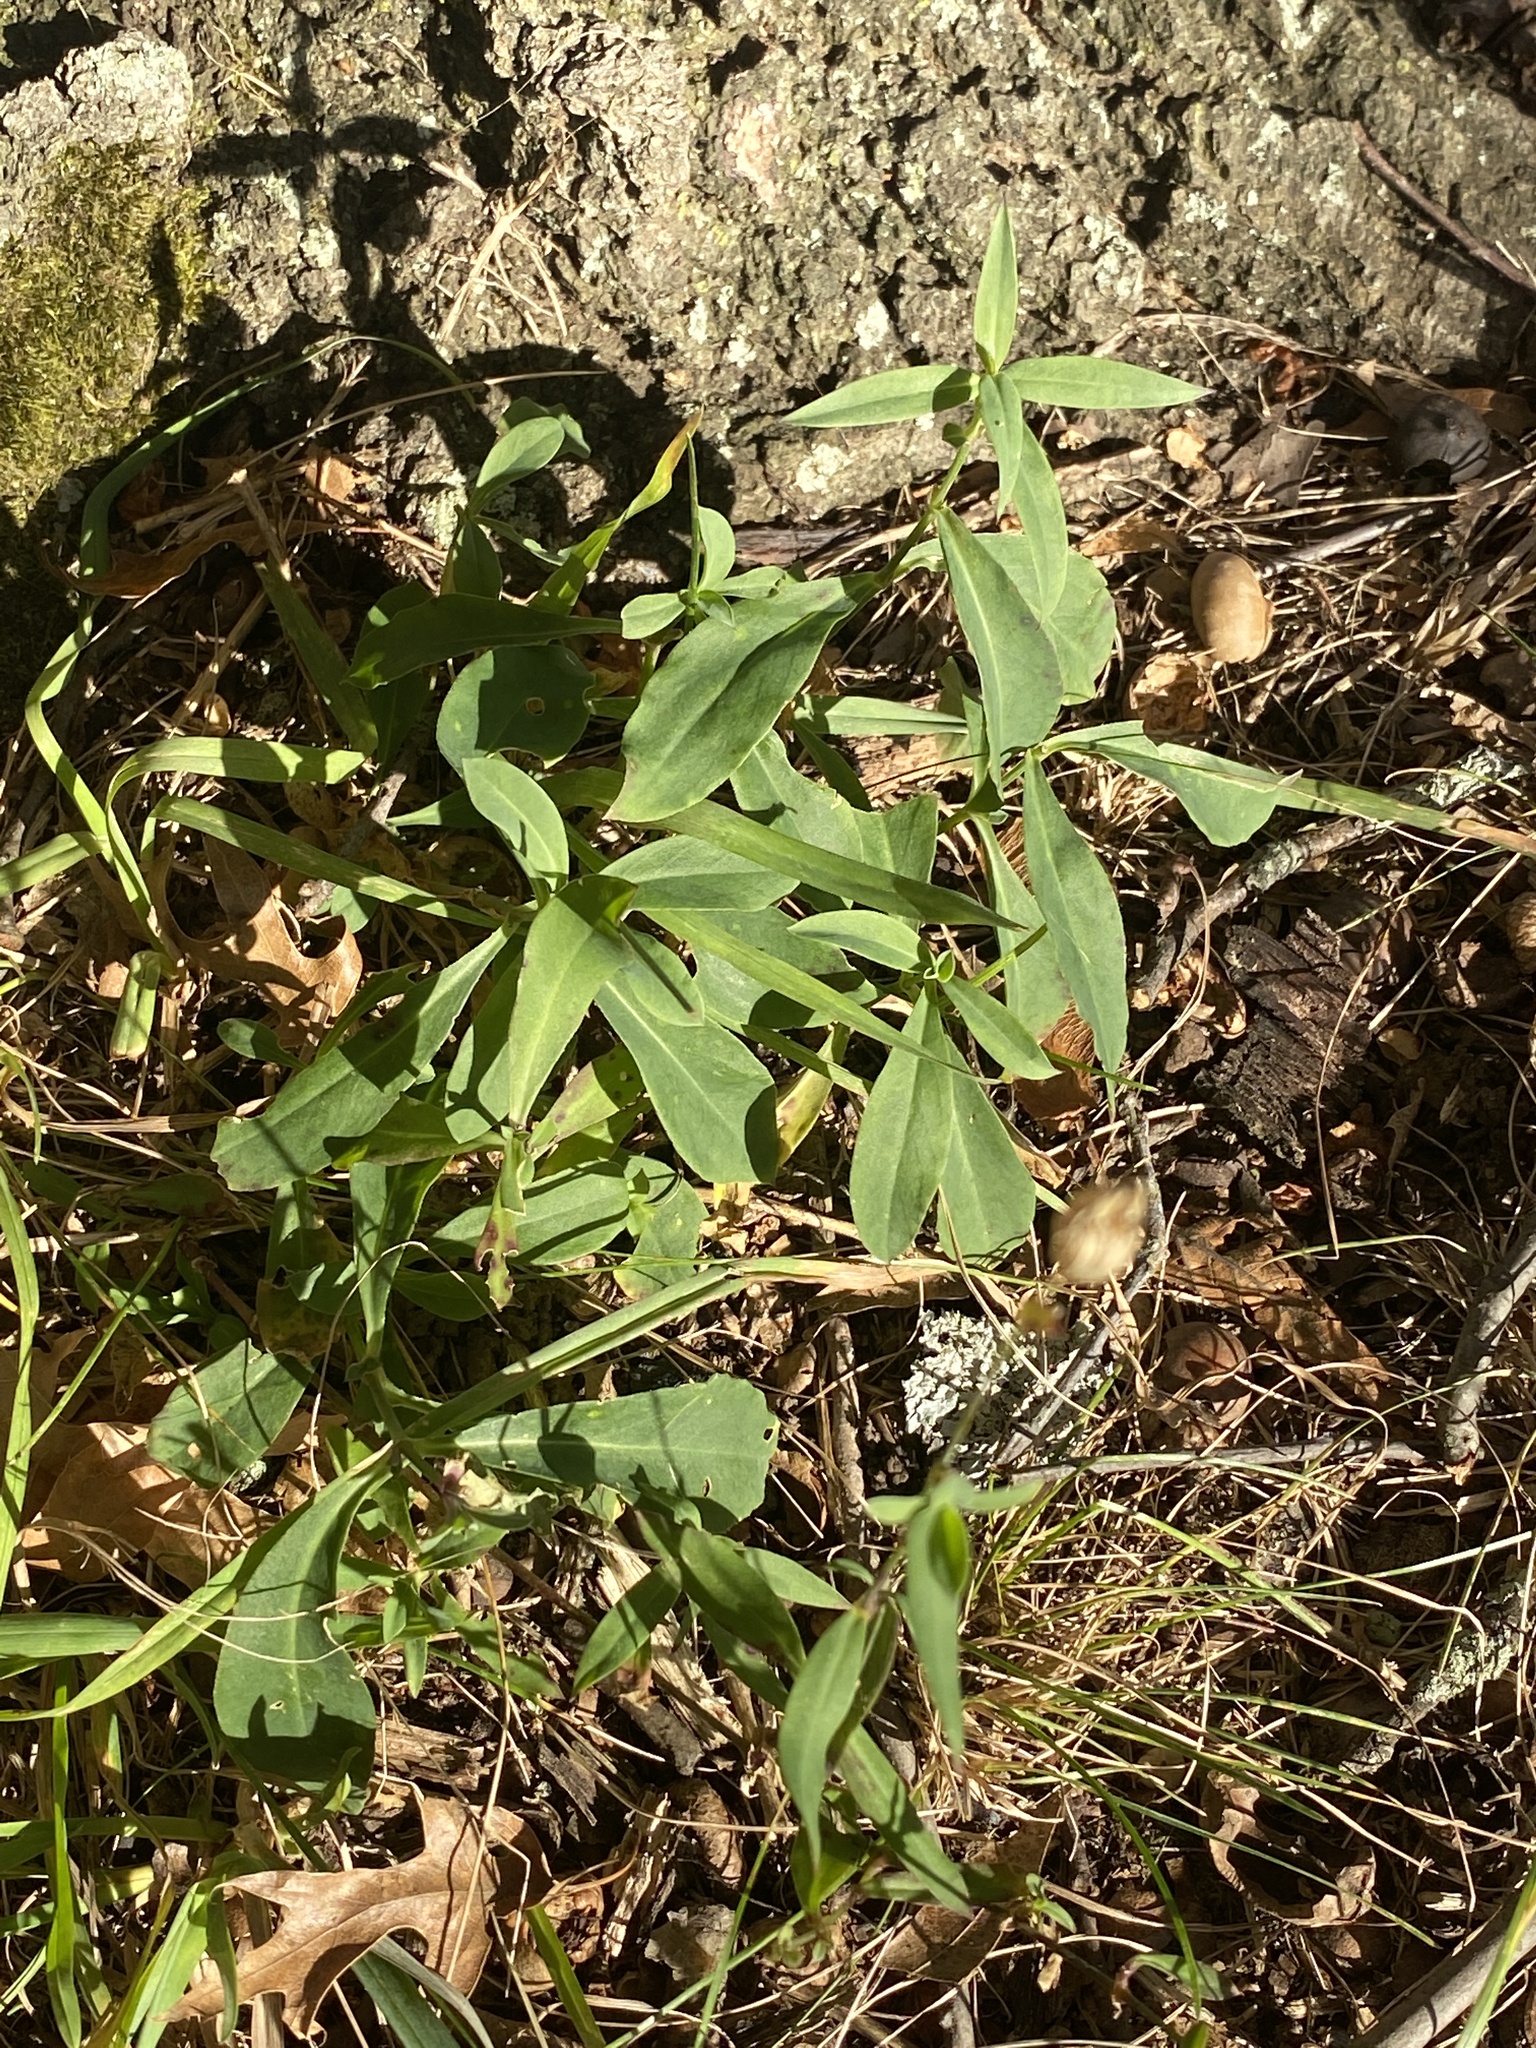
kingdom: Plantae
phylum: Tracheophyta
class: Magnoliopsida
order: Caryophyllales
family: Caryophyllaceae
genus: Silene
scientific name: Silene vulgaris
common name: Bladder campion
